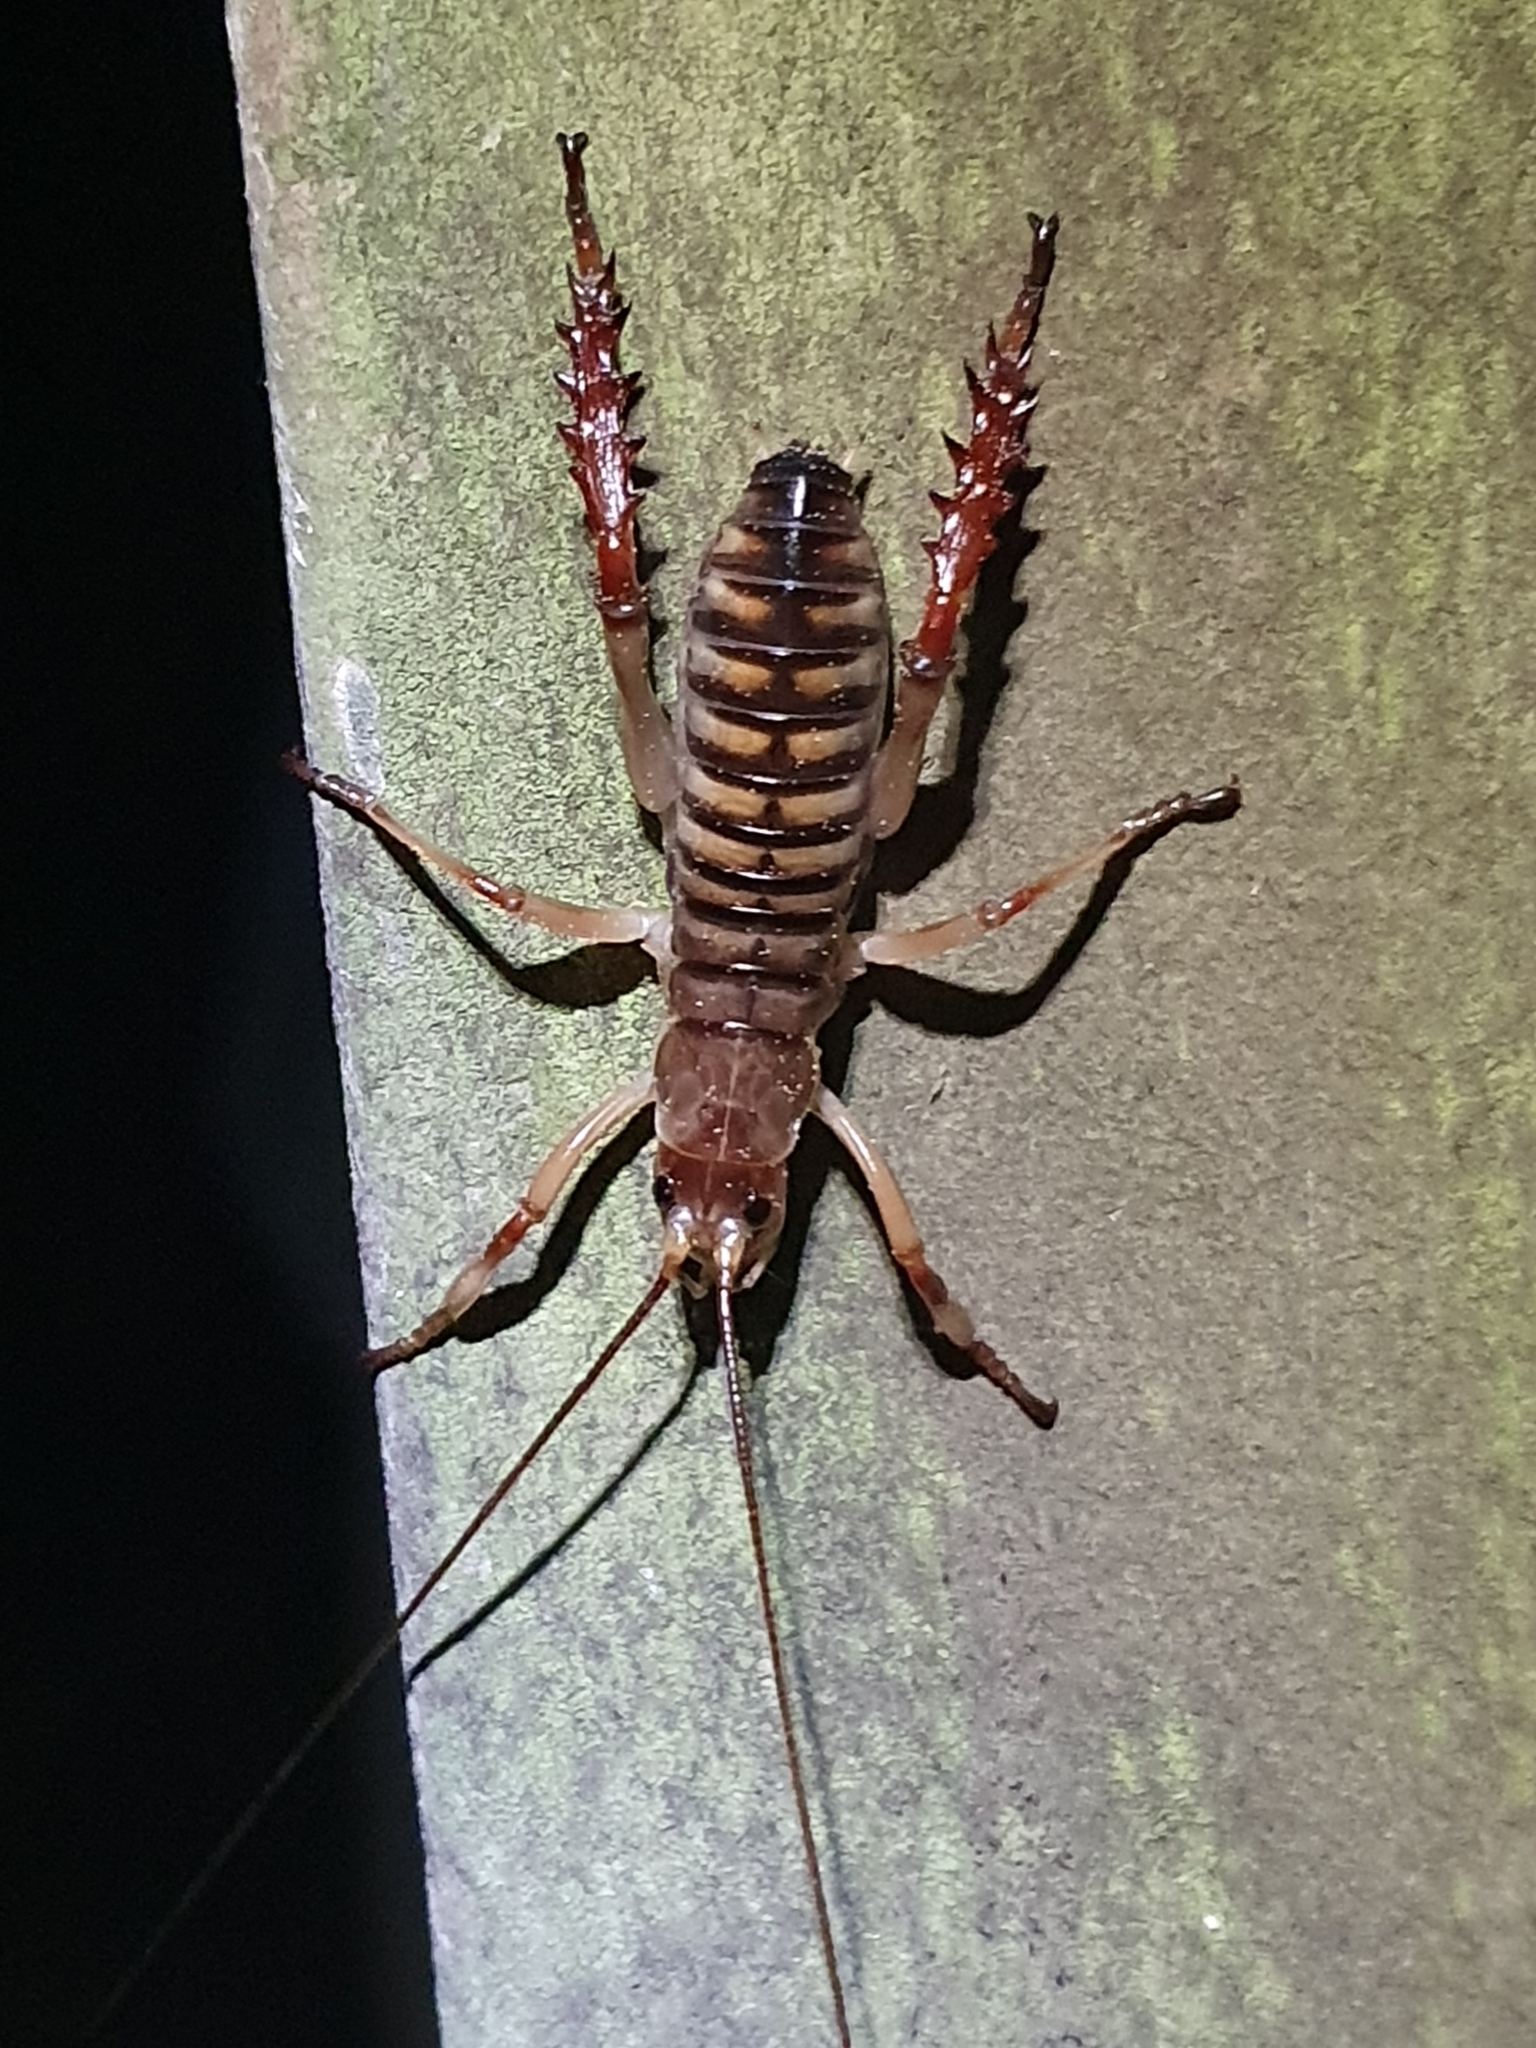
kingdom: Animalia
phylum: Arthropoda
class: Insecta
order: Orthoptera
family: Anostostomatidae
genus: Hemideina
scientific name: Hemideina crassidens
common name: Wellington tree weta
